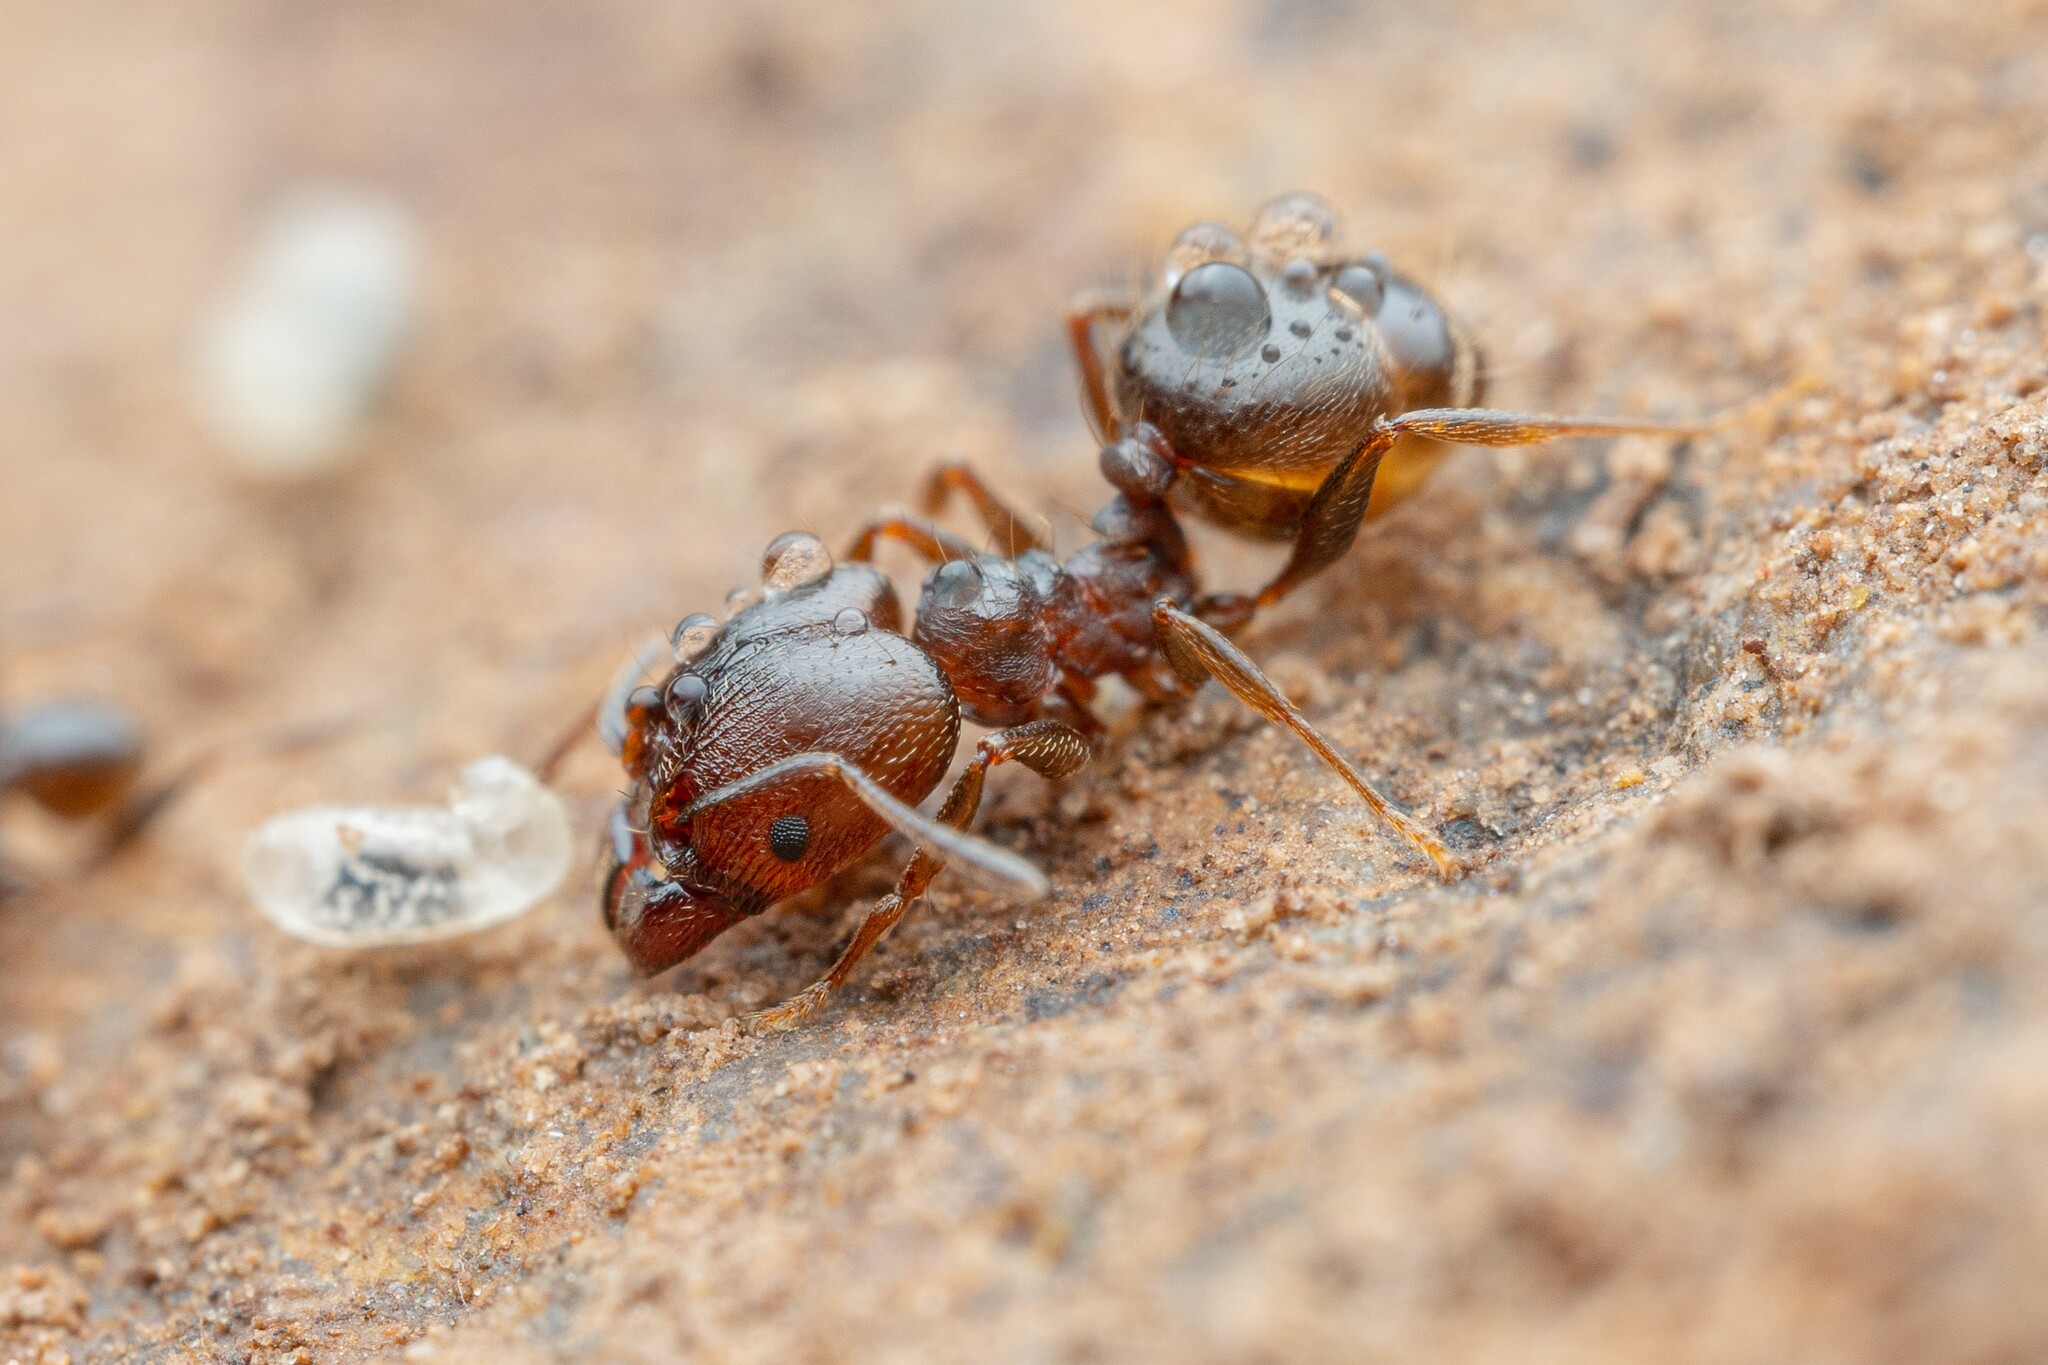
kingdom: Animalia
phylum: Arthropoda
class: Insecta
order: Hymenoptera
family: Formicidae
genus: Pheidole
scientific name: Pheidole vallicola
